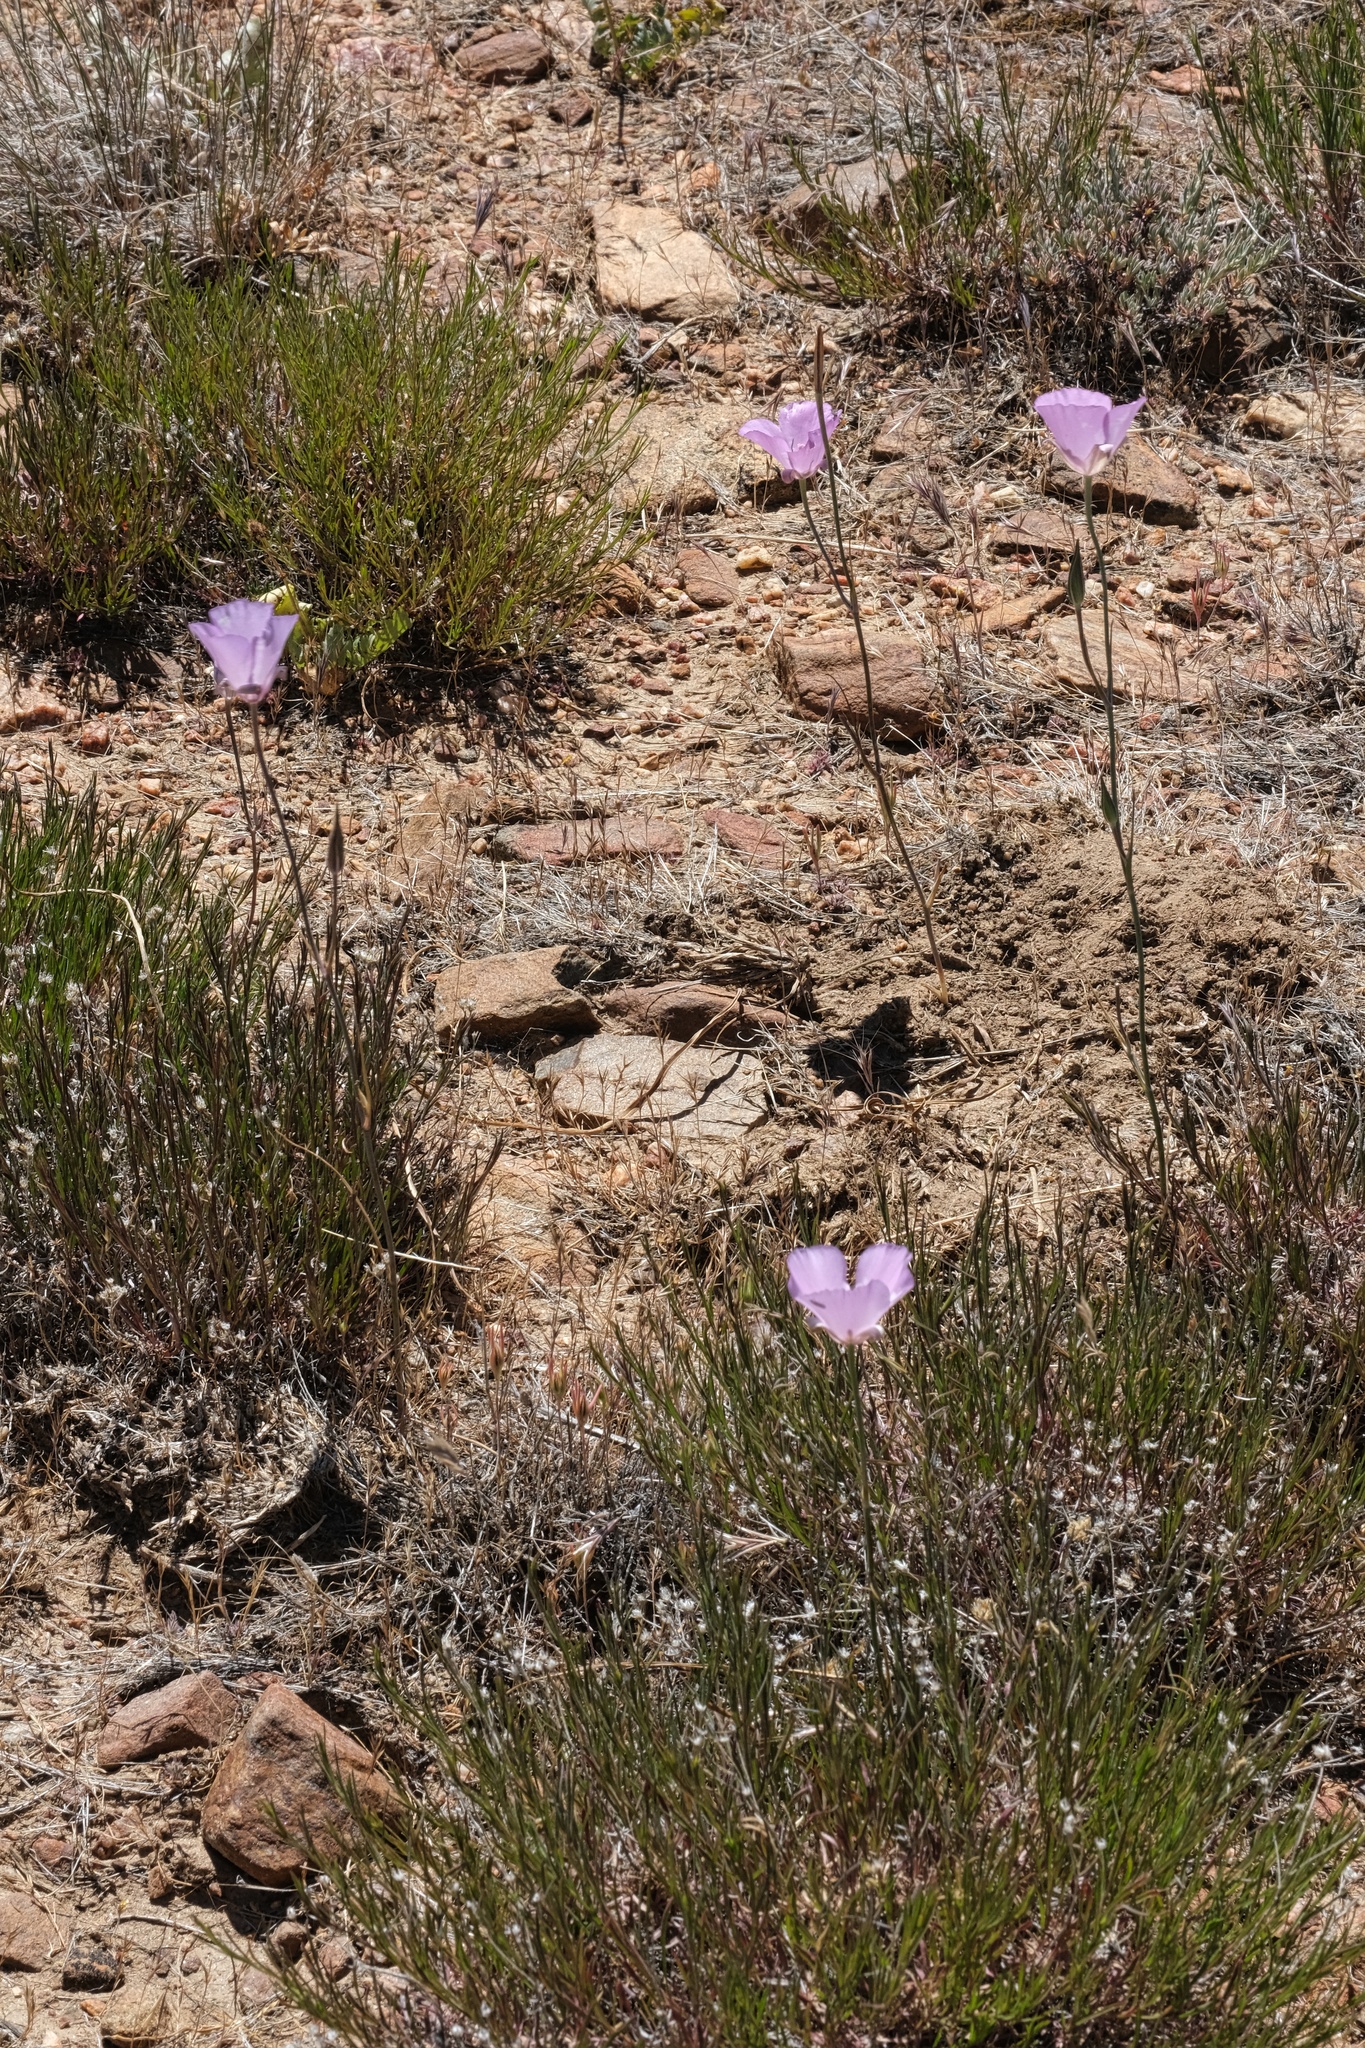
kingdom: Plantae
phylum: Tracheophyta
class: Liliopsida
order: Liliales
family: Liliaceae
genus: Calochortus
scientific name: Calochortus splendens
